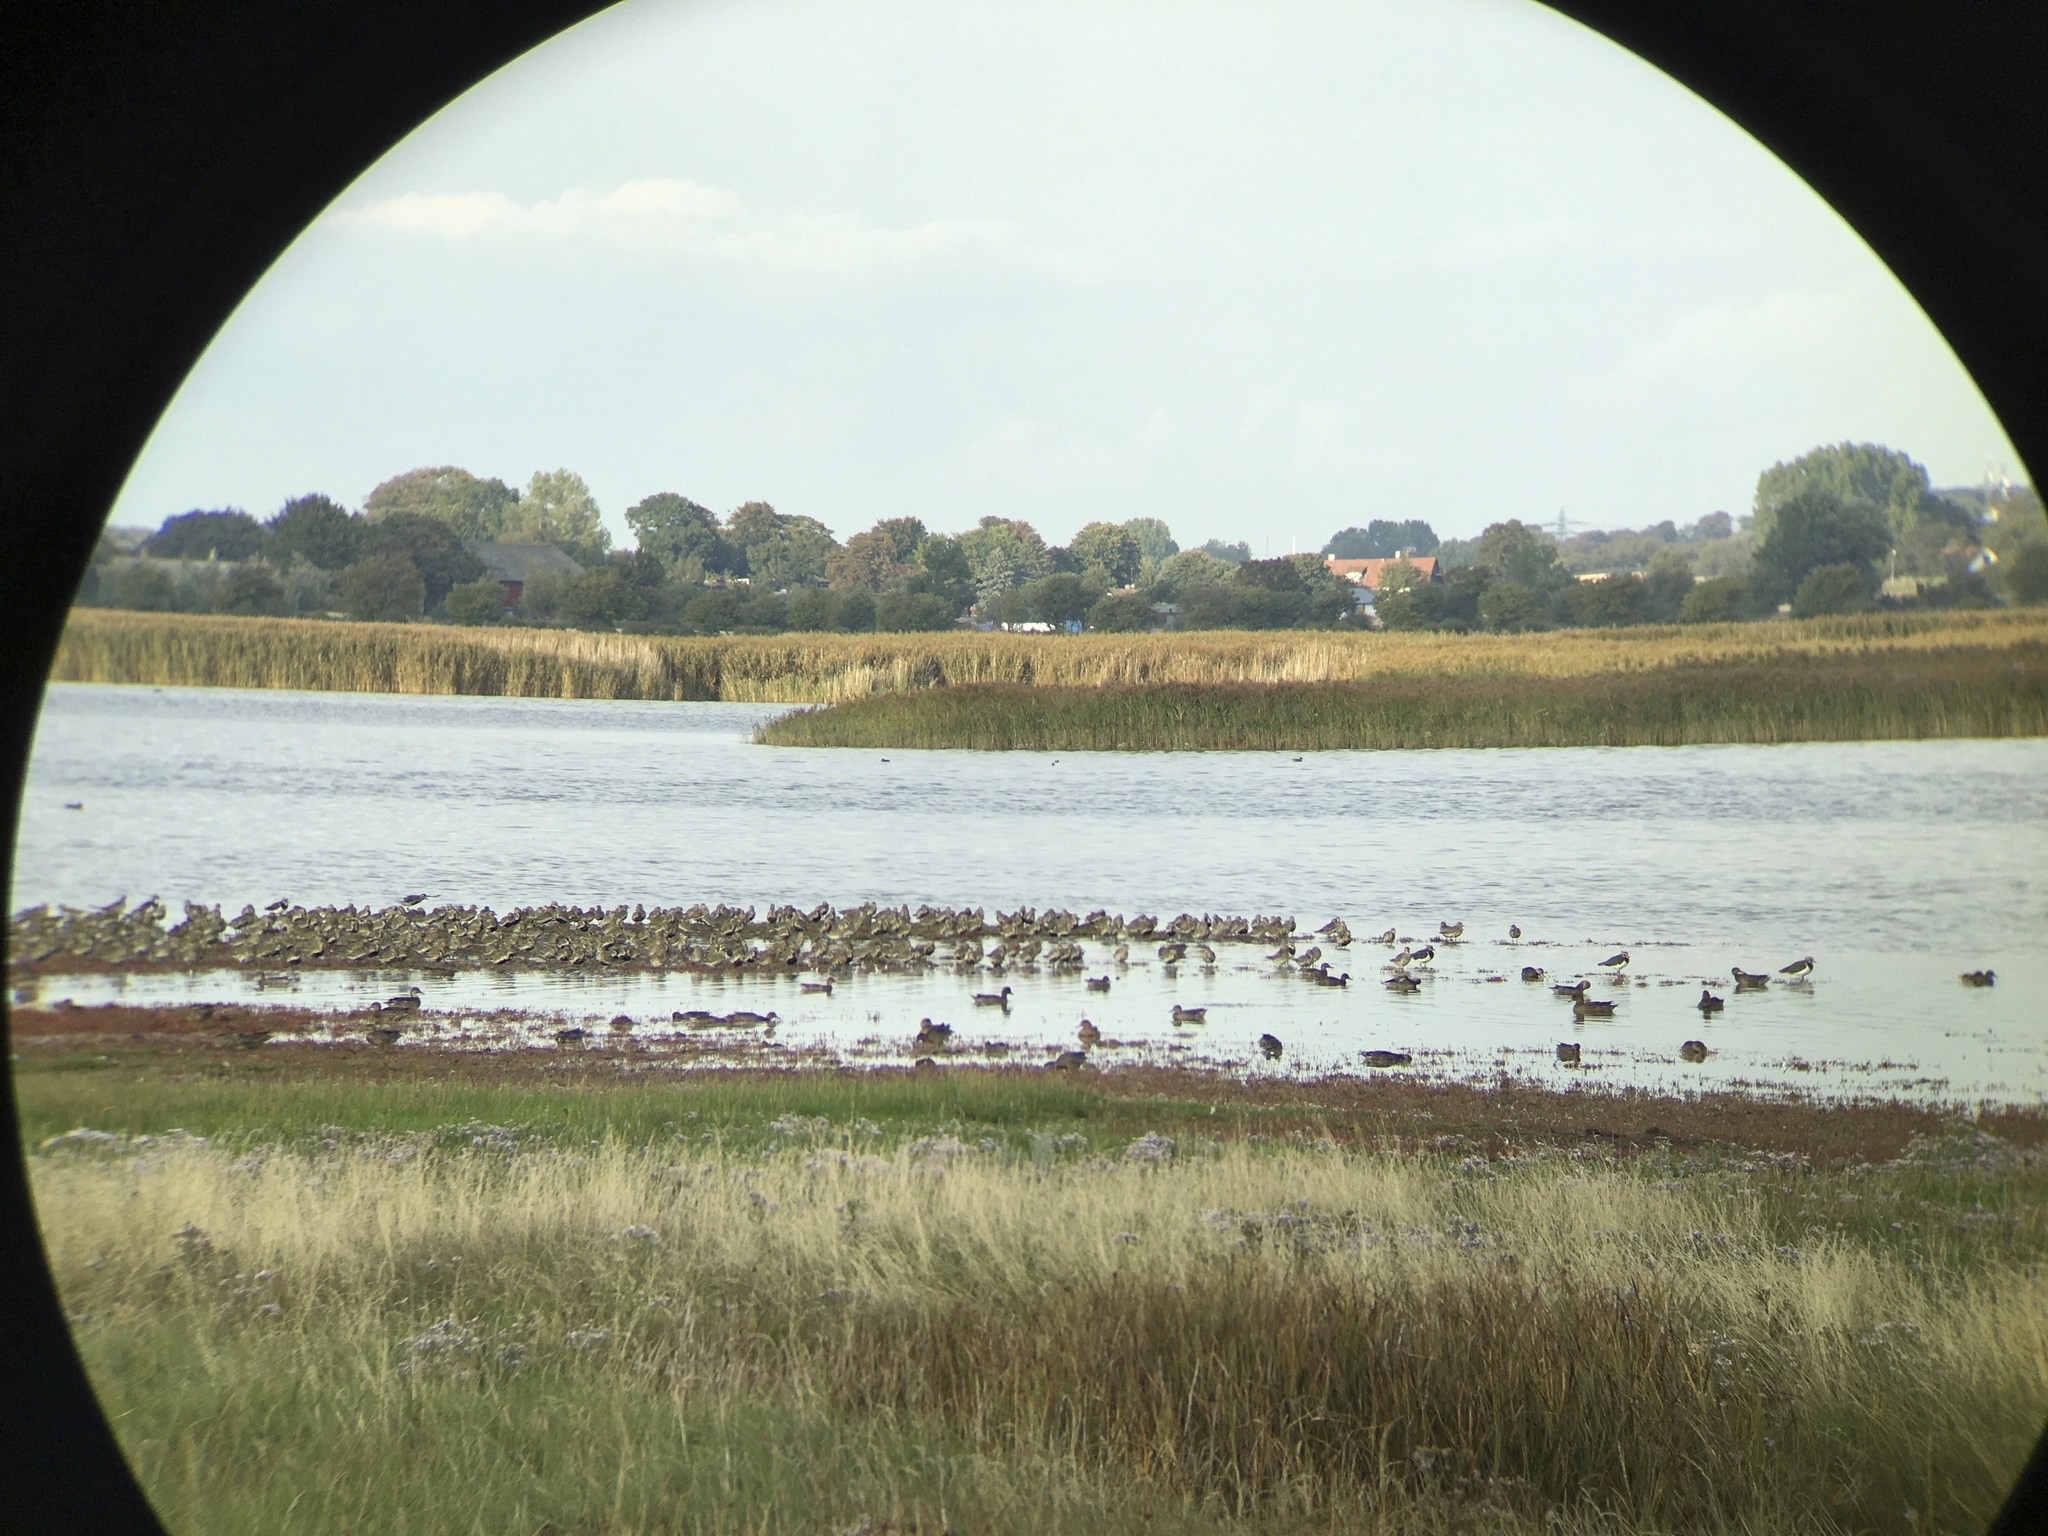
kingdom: Animalia
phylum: Chordata
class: Aves
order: Charadriiformes
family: Charadriidae
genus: Pluvialis
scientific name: Pluvialis apricaria
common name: European golden plover
